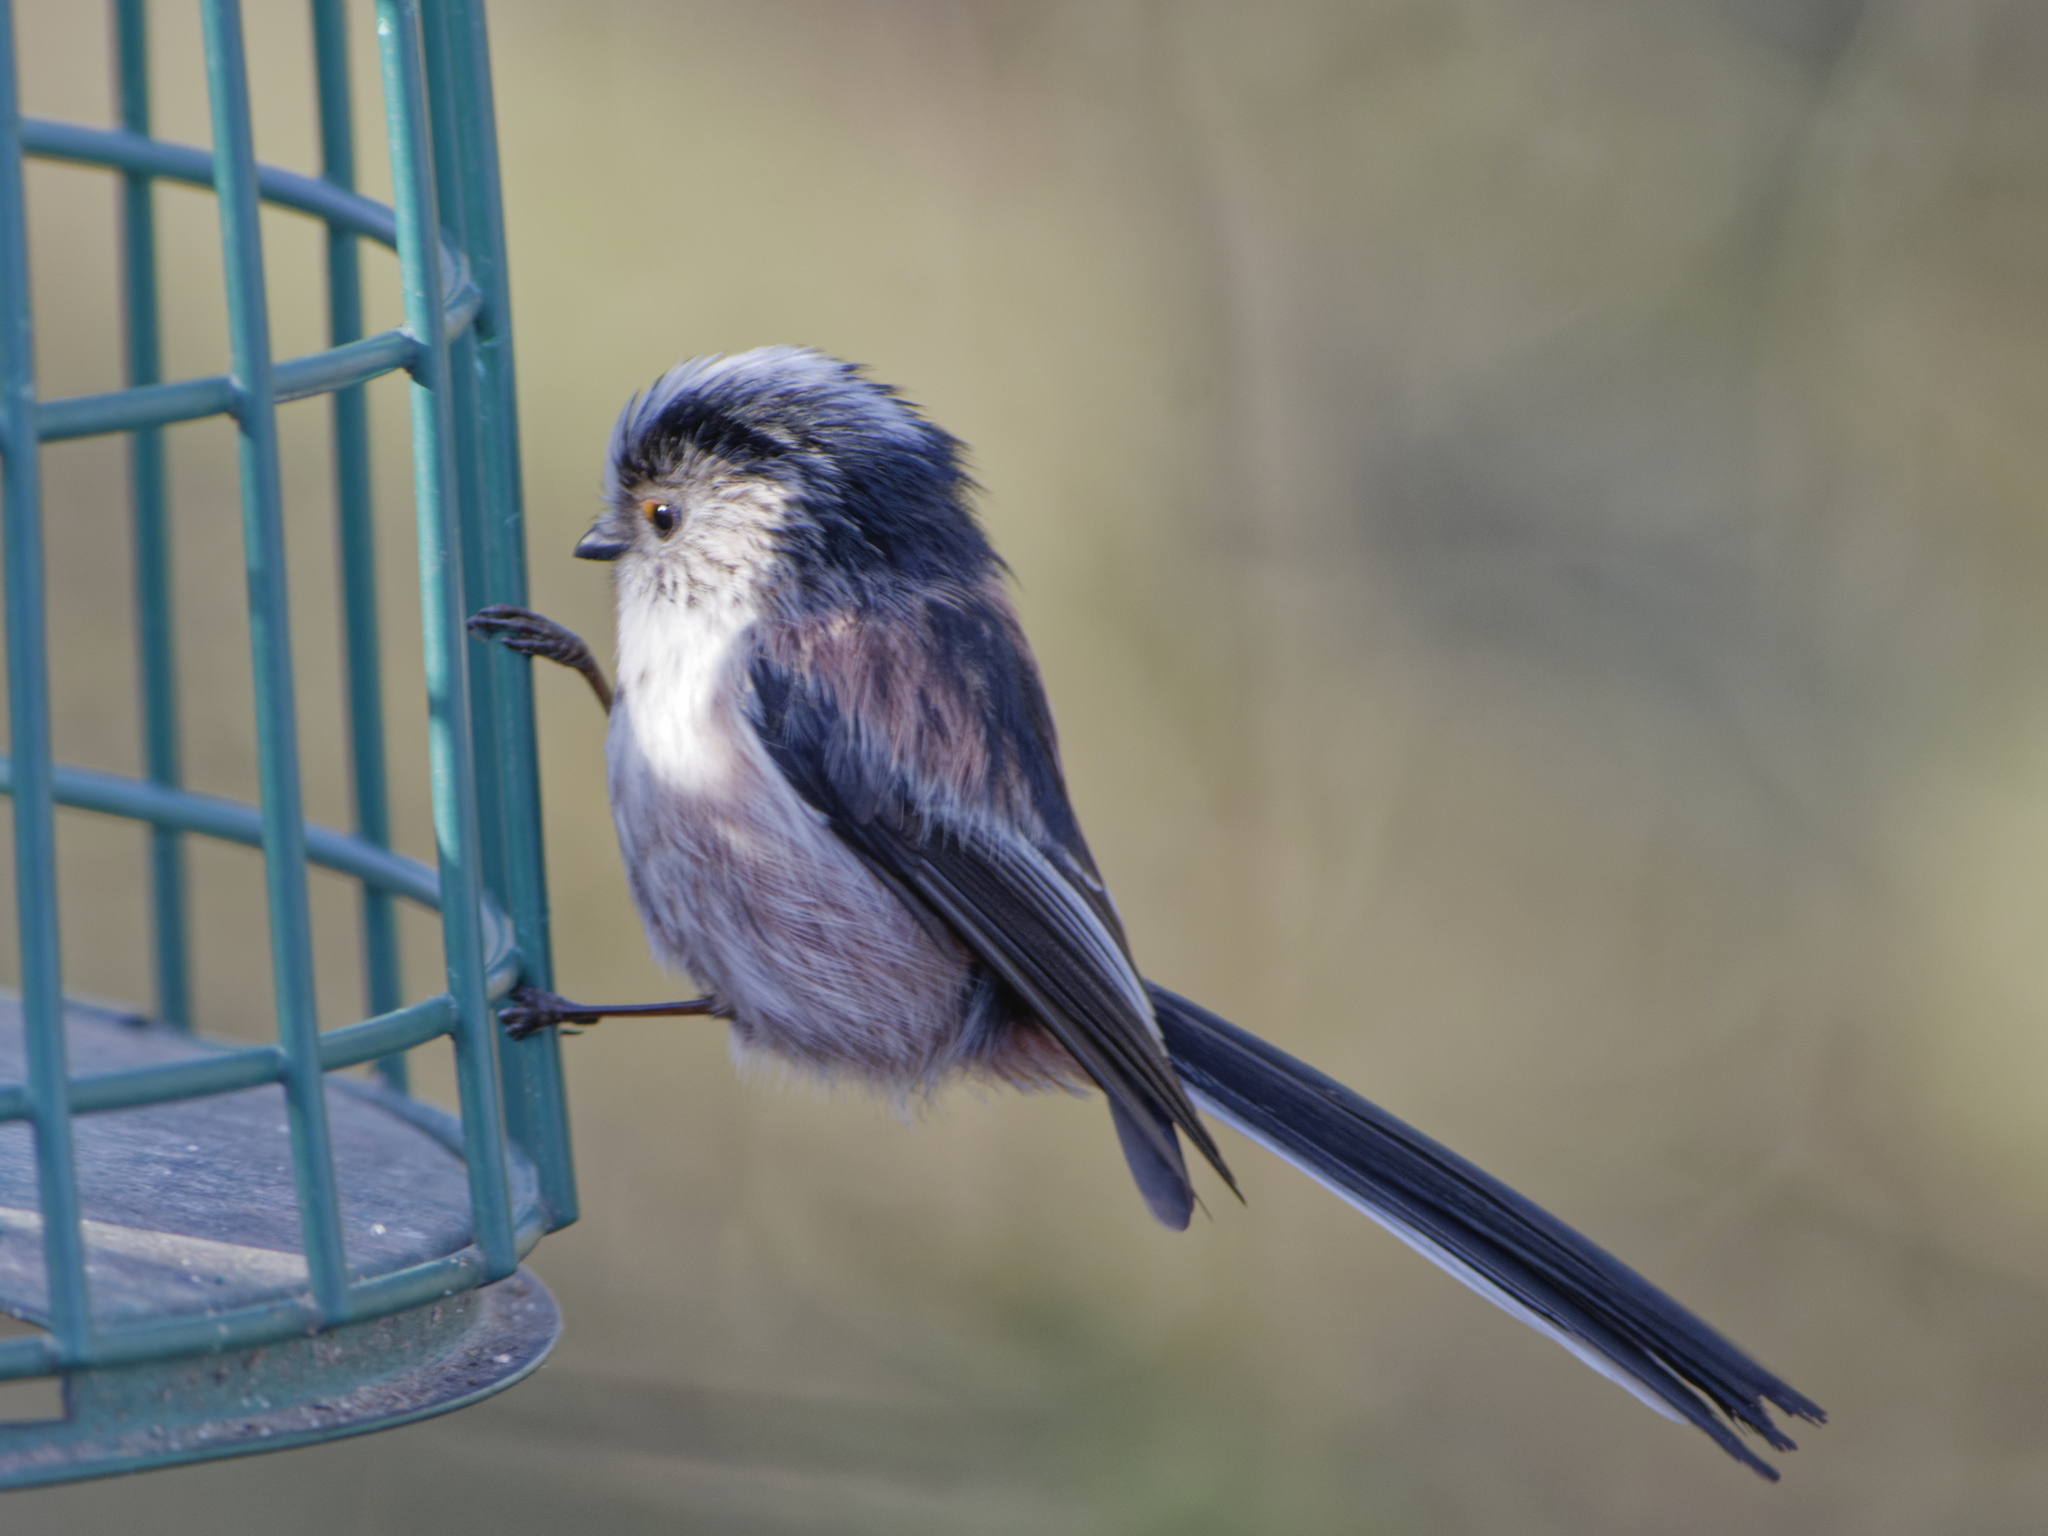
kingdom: Animalia
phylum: Chordata
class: Aves
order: Passeriformes
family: Aegithalidae
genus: Aegithalos
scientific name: Aegithalos caudatus
